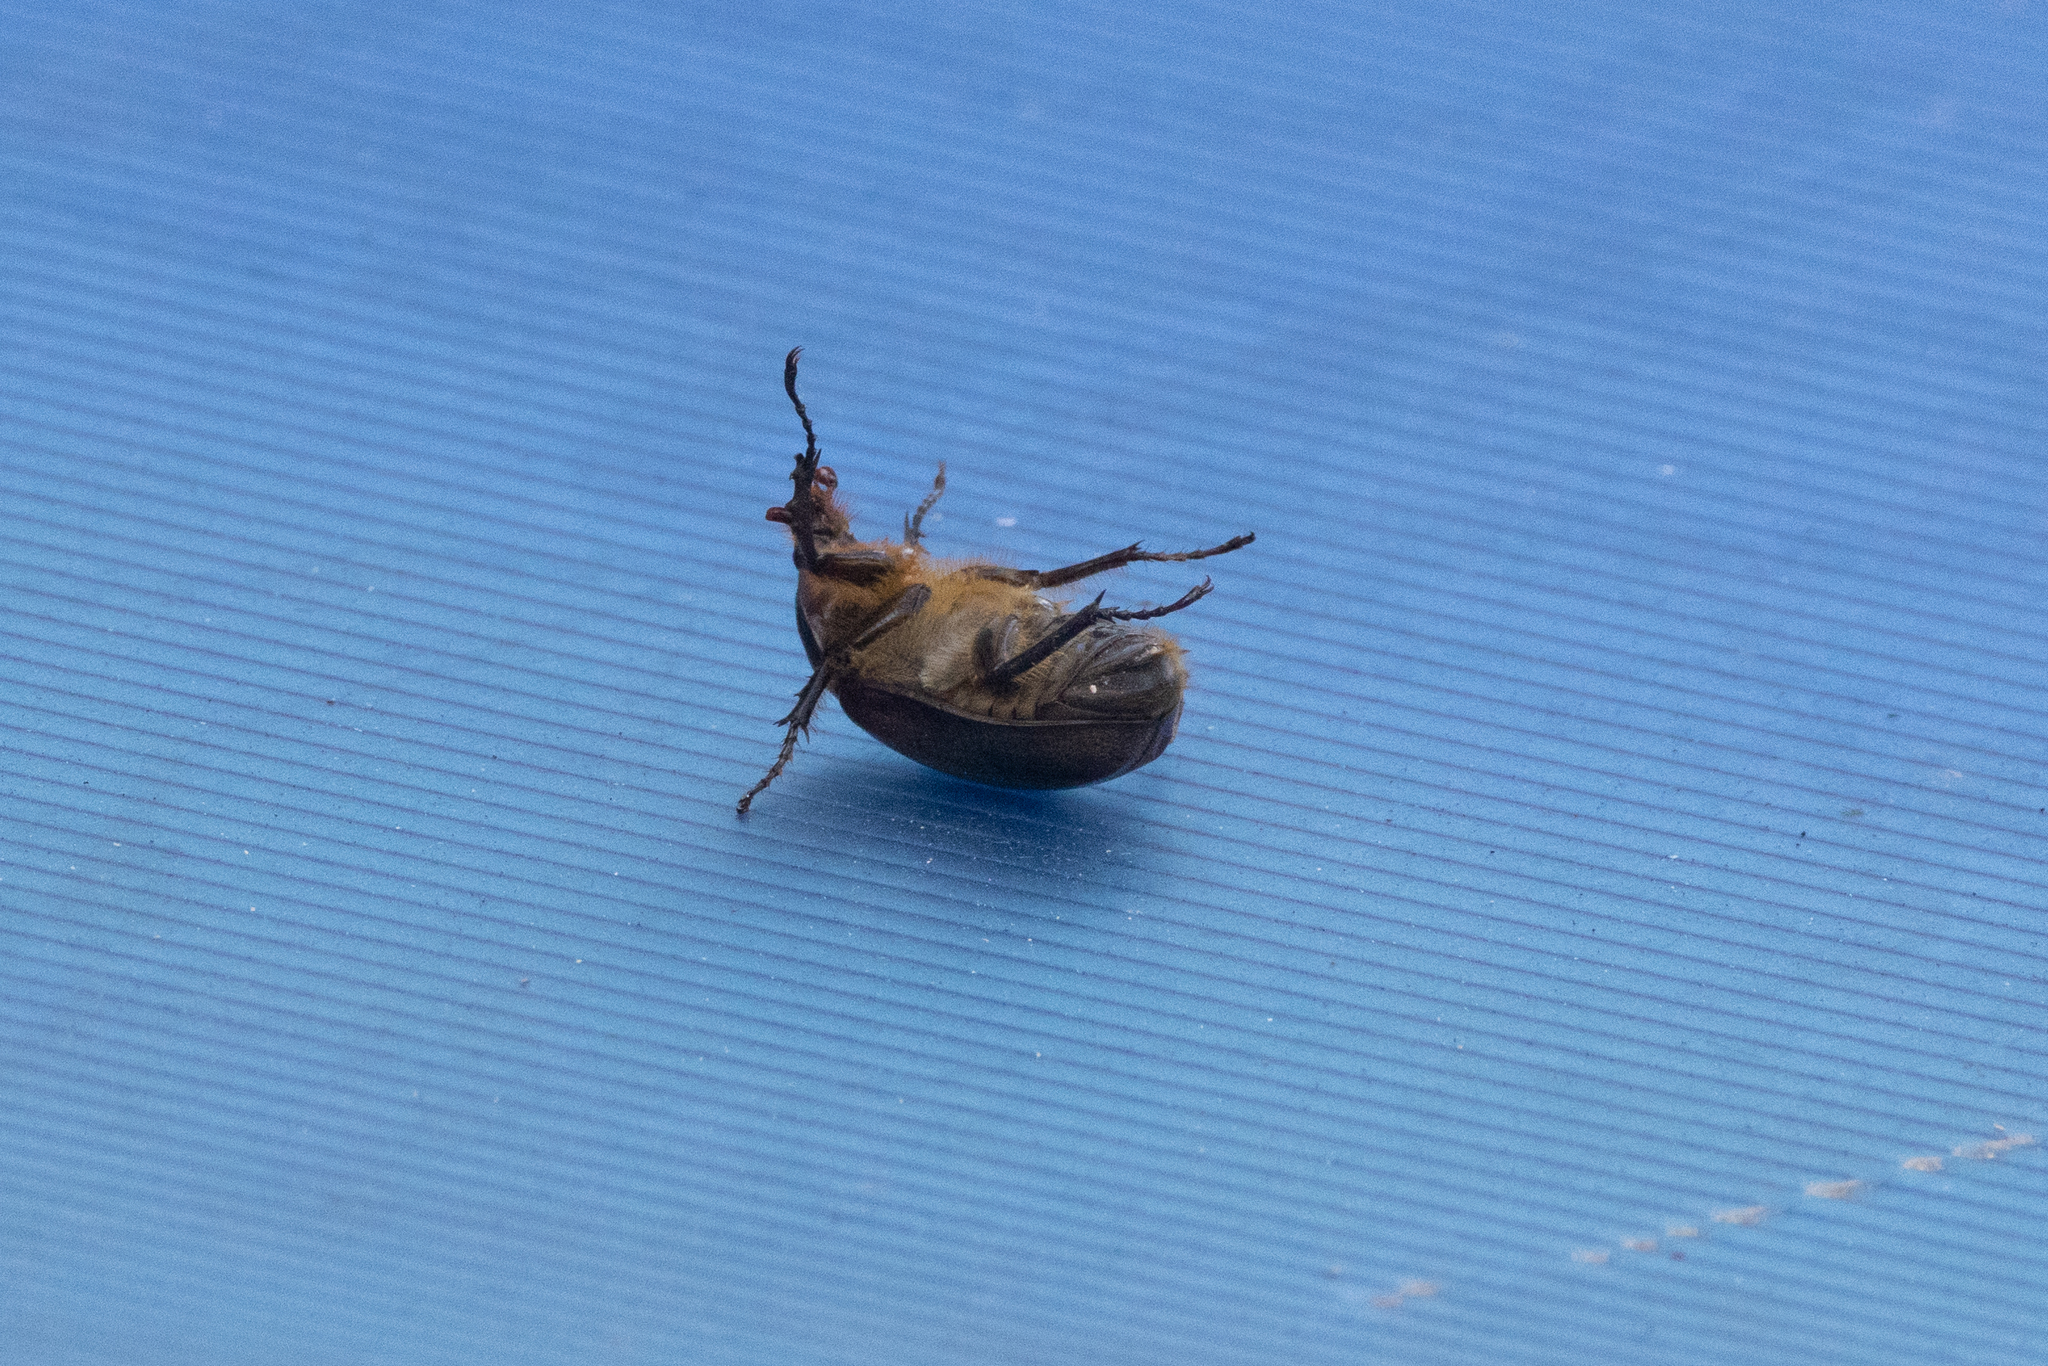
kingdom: Animalia
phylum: Arthropoda
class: Insecta
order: Coleoptera
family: Scarabaeidae
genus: Golofa
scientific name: Golofa porteri
